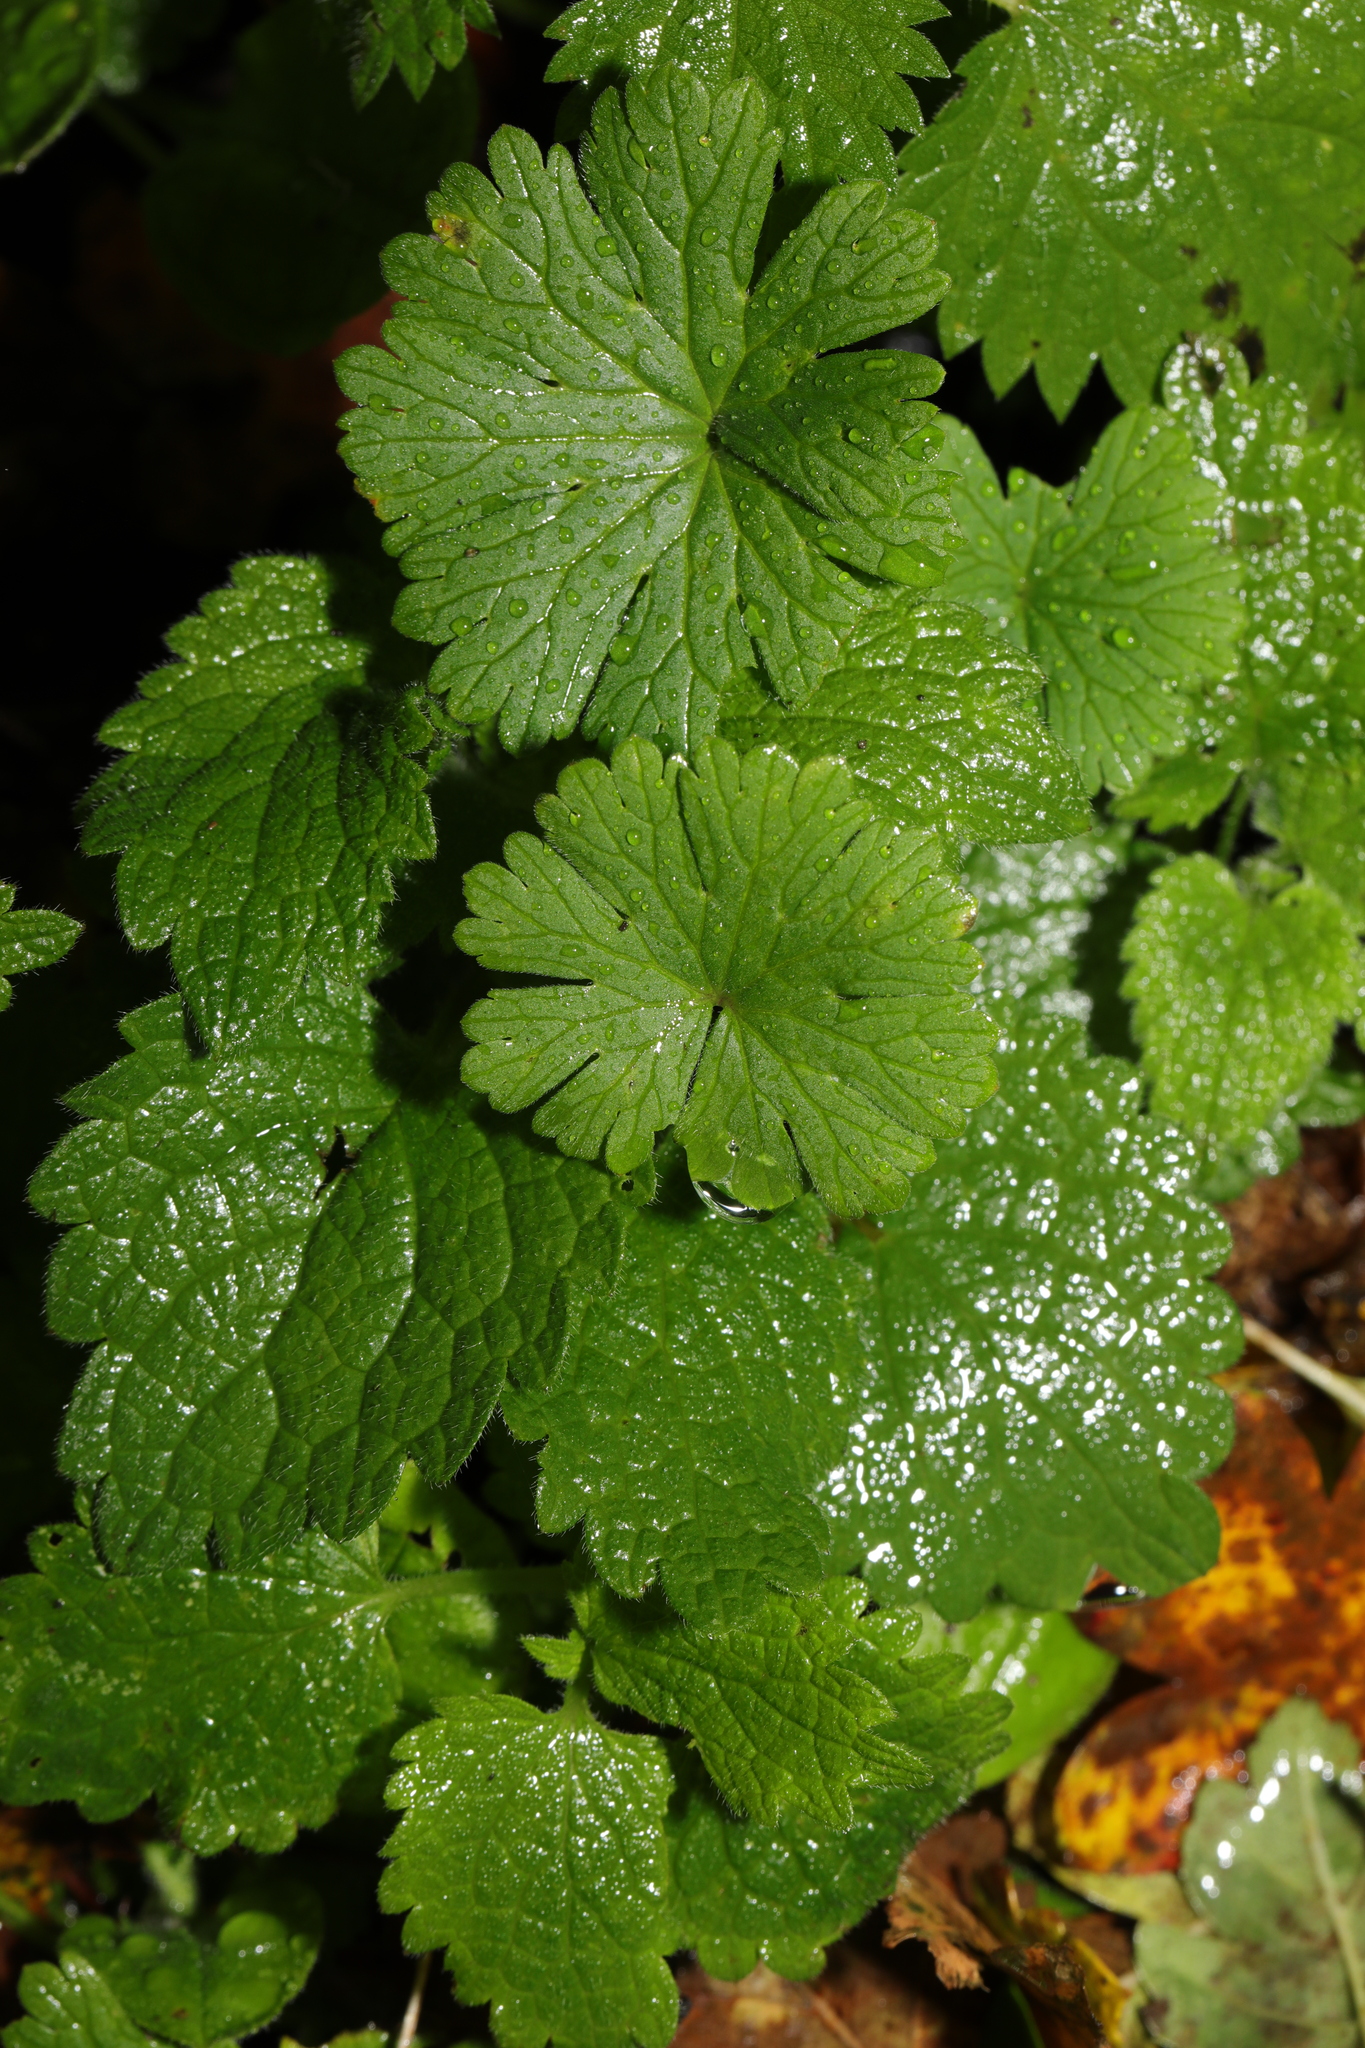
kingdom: Plantae
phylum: Tracheophyta
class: Magnoliopsida
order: Geraniales
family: Geraniaceae
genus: Geranium
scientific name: Geranium molle
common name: Dove's-foot crane's-bill
